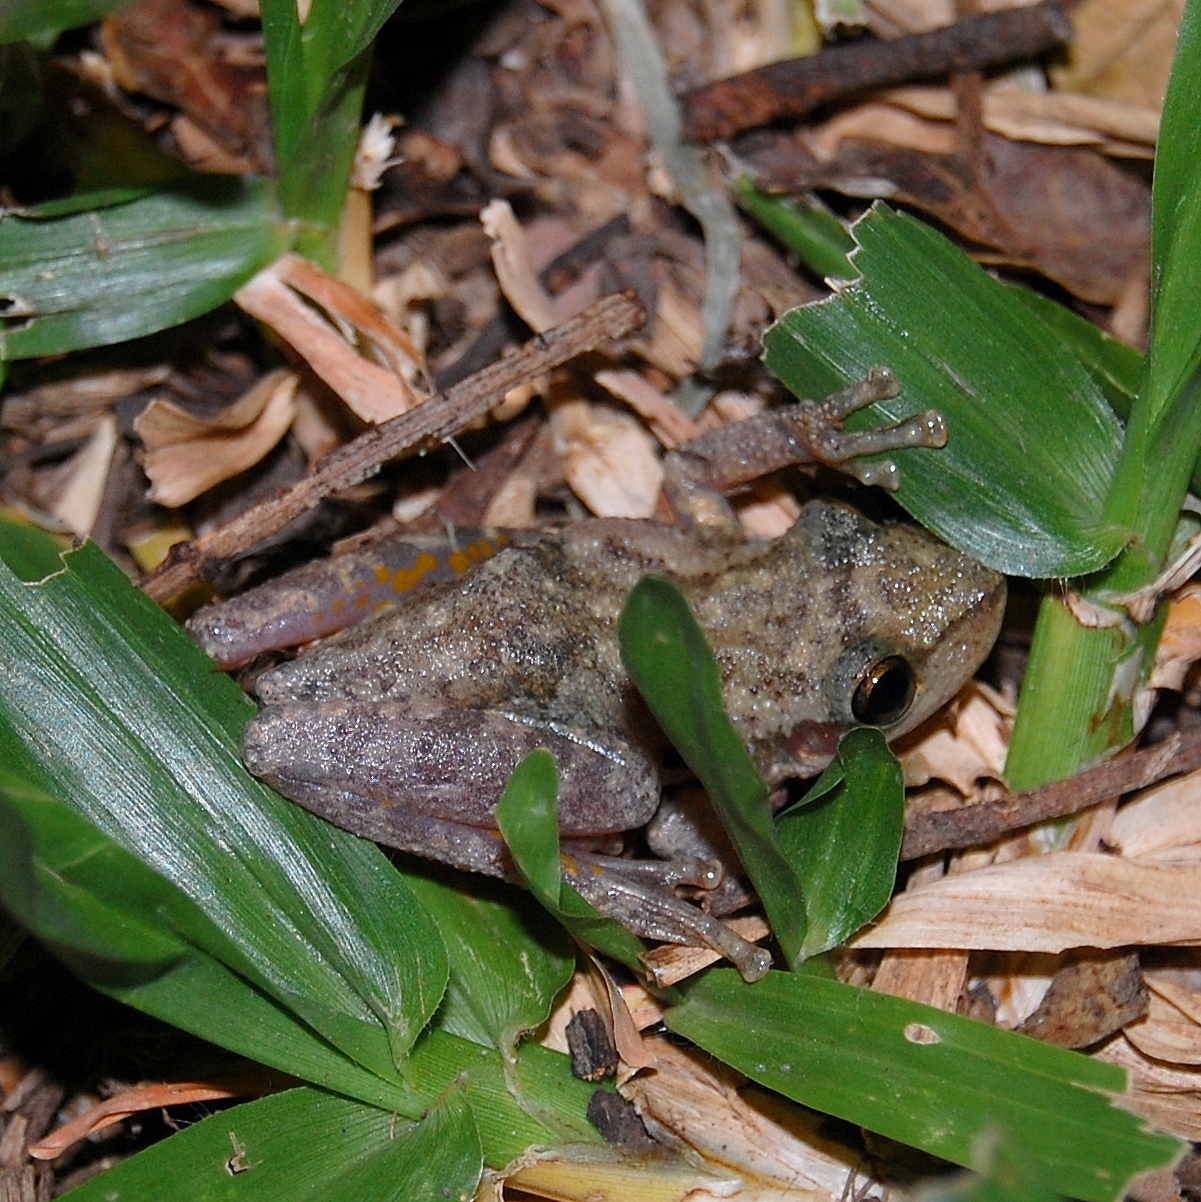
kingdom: Animalia
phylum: Chordata
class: Amphibia
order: Anura
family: Hylidae
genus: Scinax
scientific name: Scinax fuscovarius
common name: Fuscous-blotched treefrog
